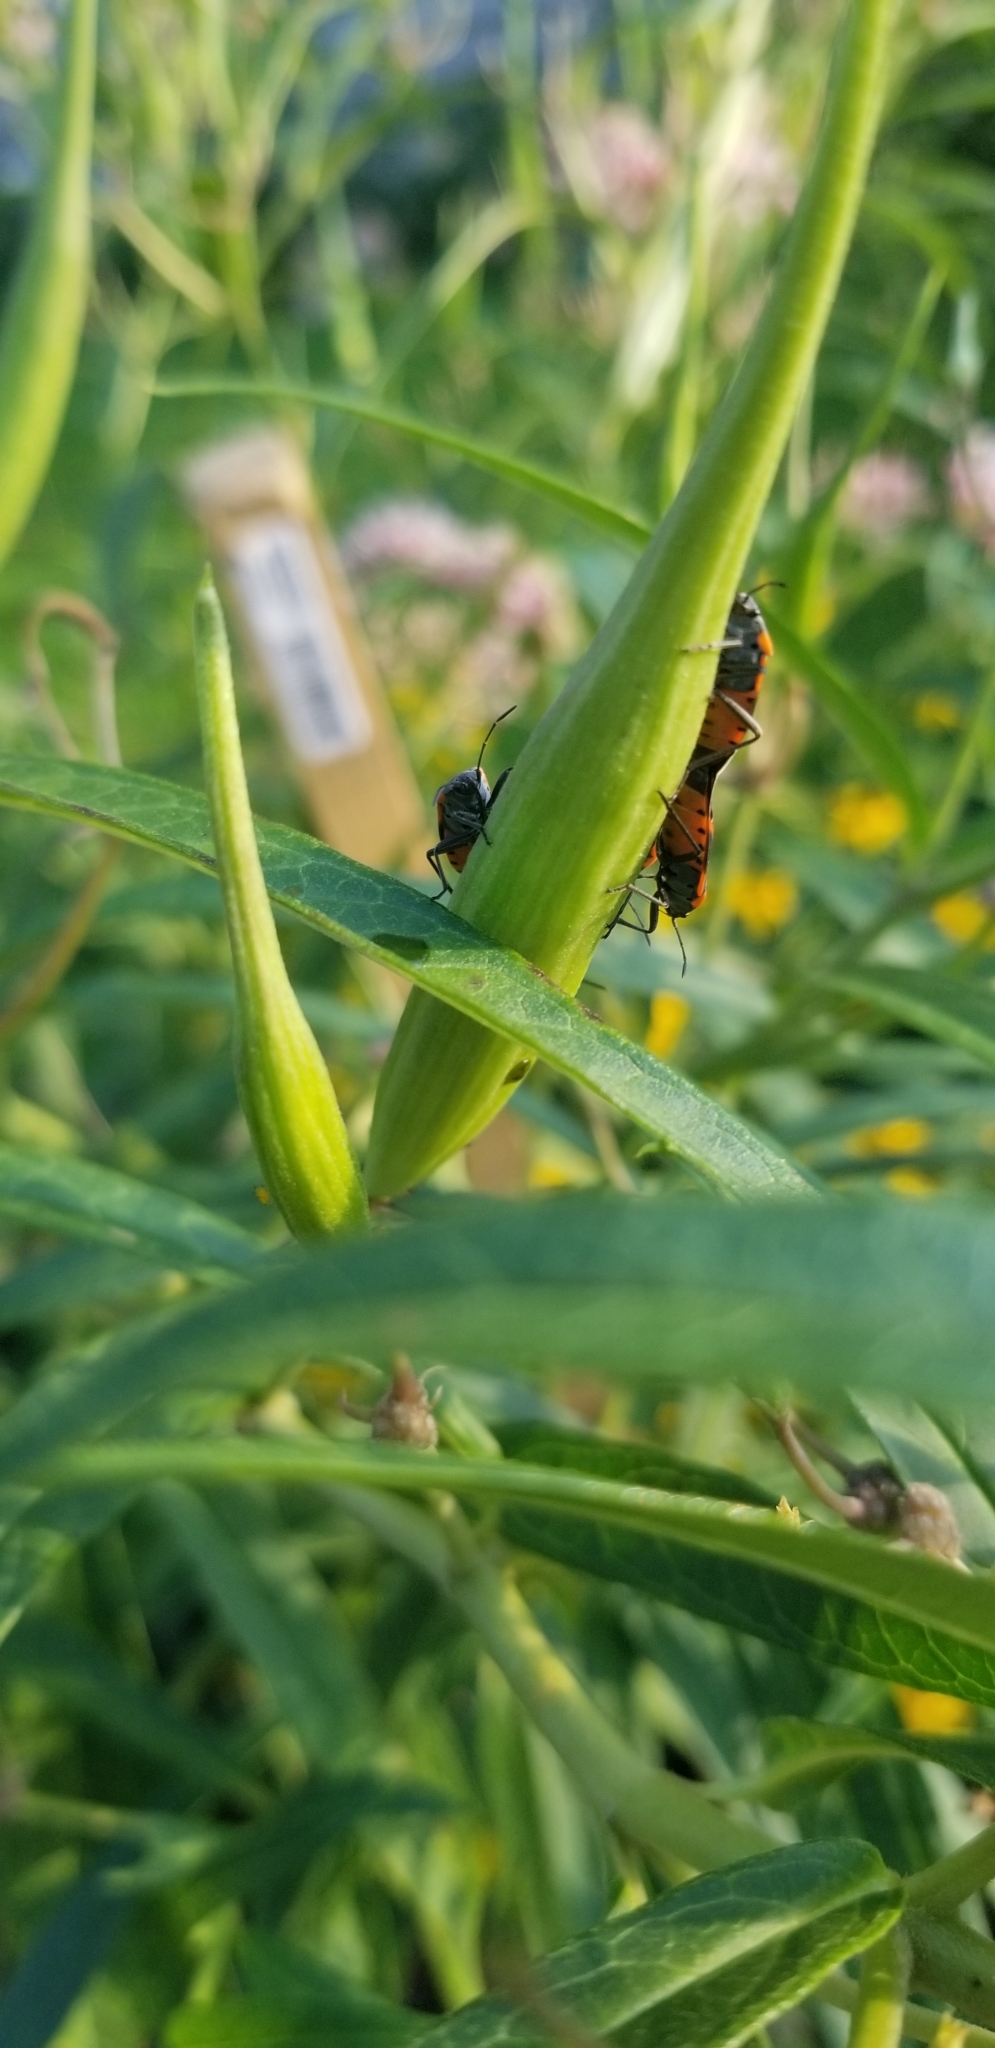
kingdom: Animalia
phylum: Arthropoda
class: Insecta
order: Hemiptera
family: Lygaeidae
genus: Lygaeus
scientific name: Lygaeus kalmii
